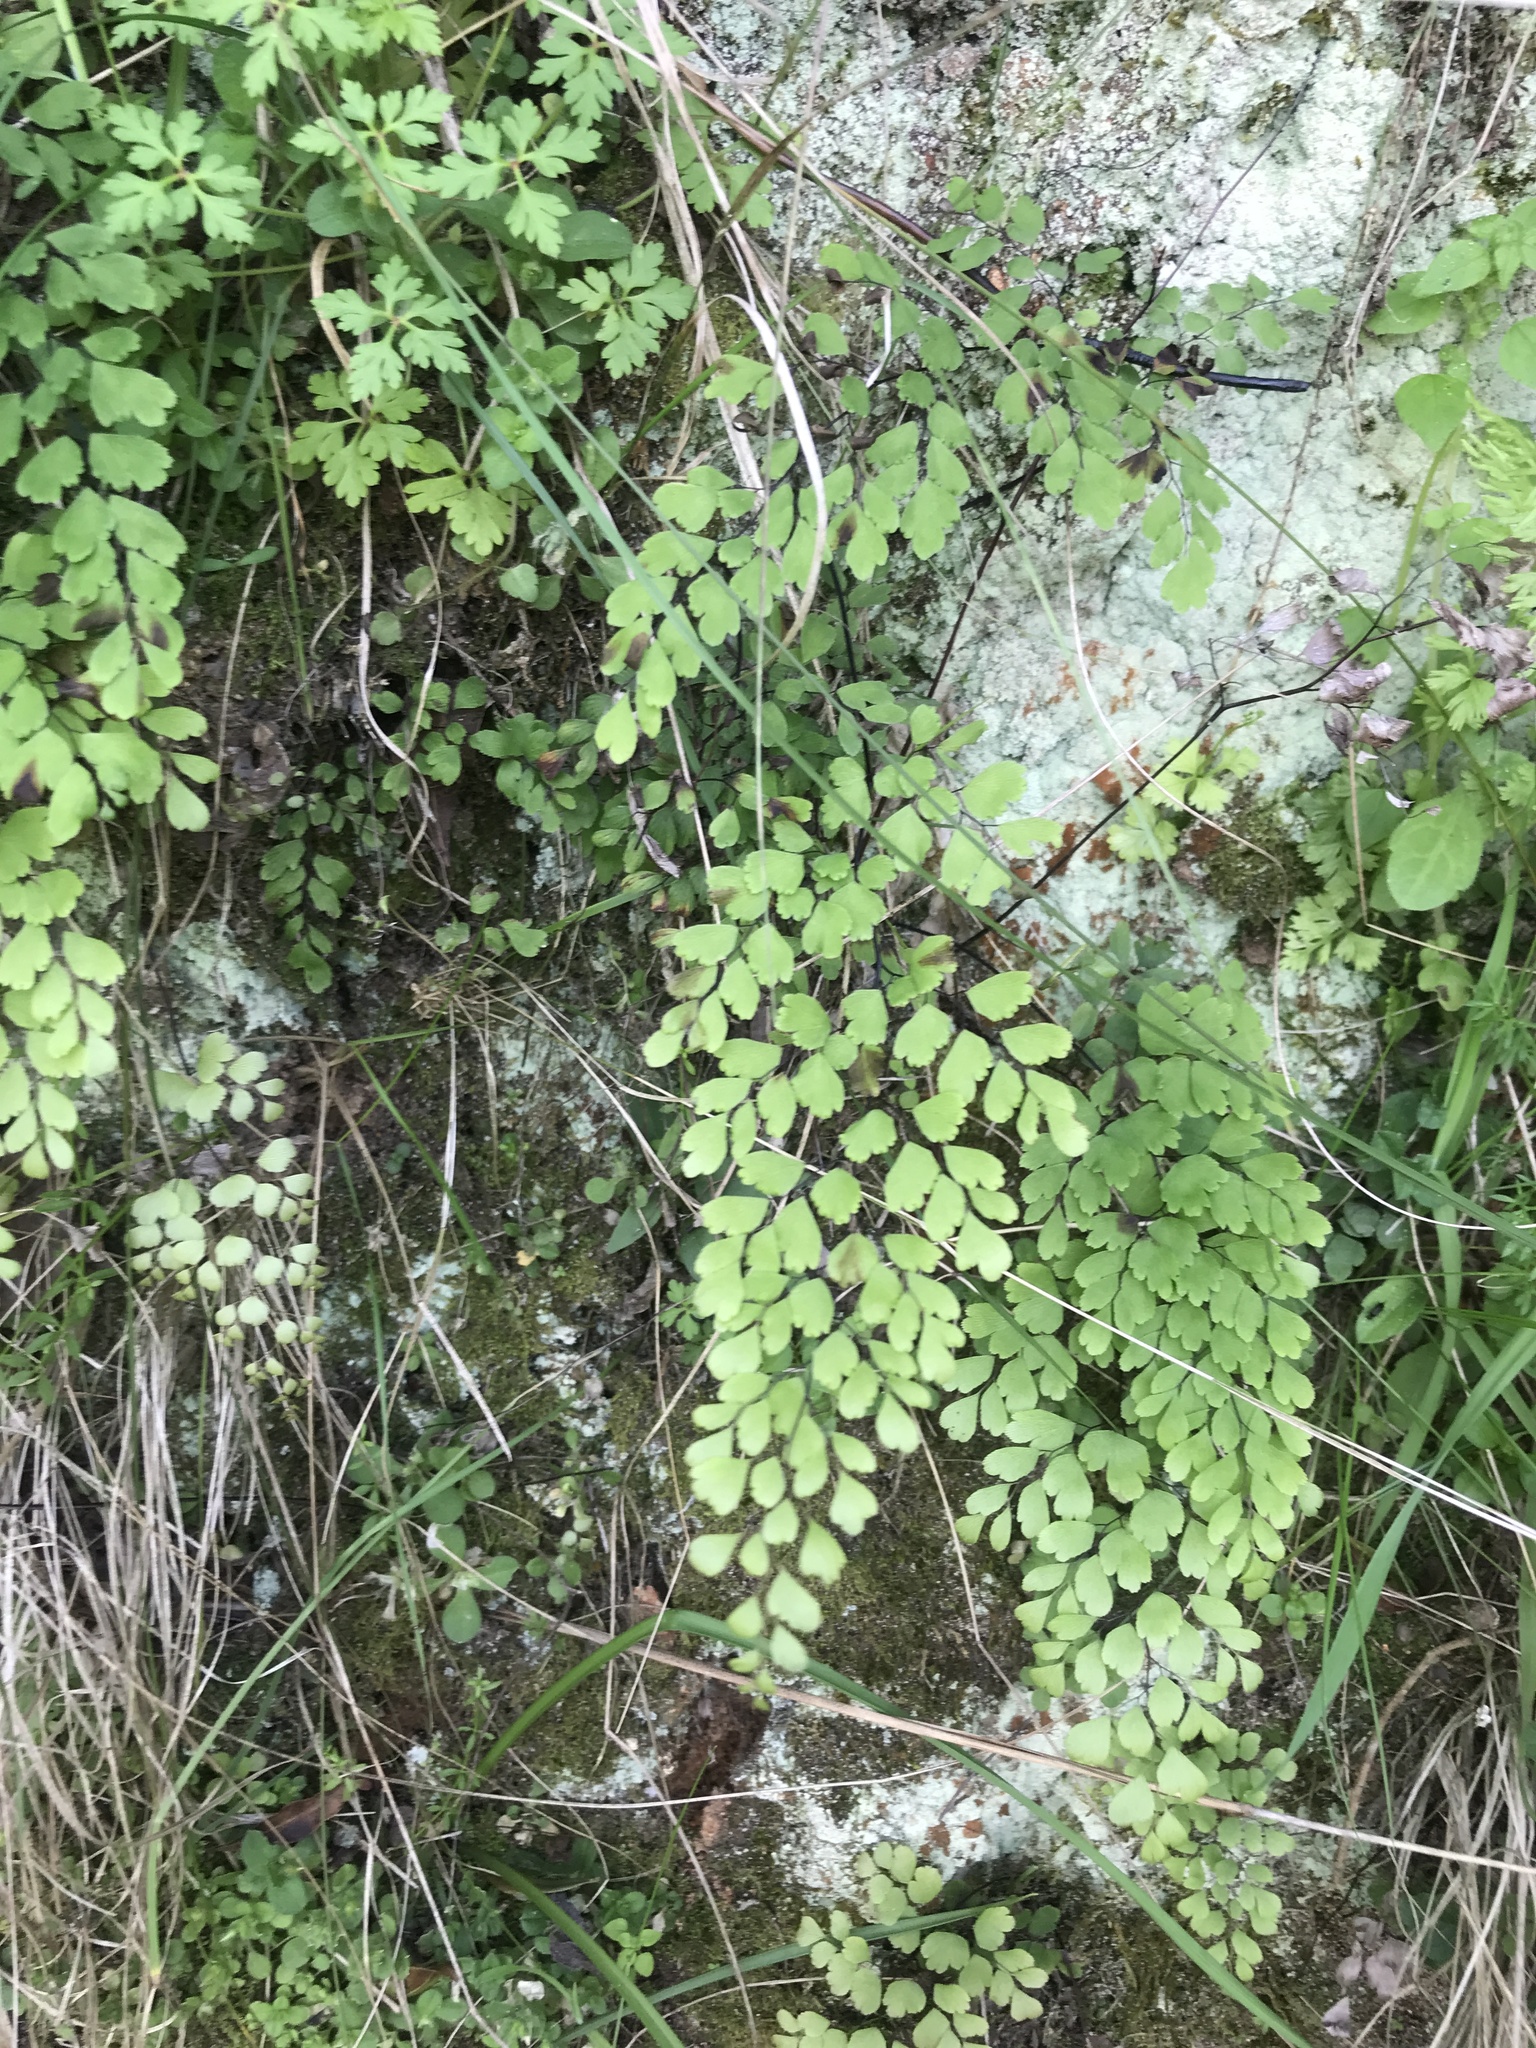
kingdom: Plantae
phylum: Tracheophyta
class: Polypodiopsida
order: Polypodiales
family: Pteridaceae
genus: Adiantum
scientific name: Adiantum raddianum
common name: Delta maidenhair fern
